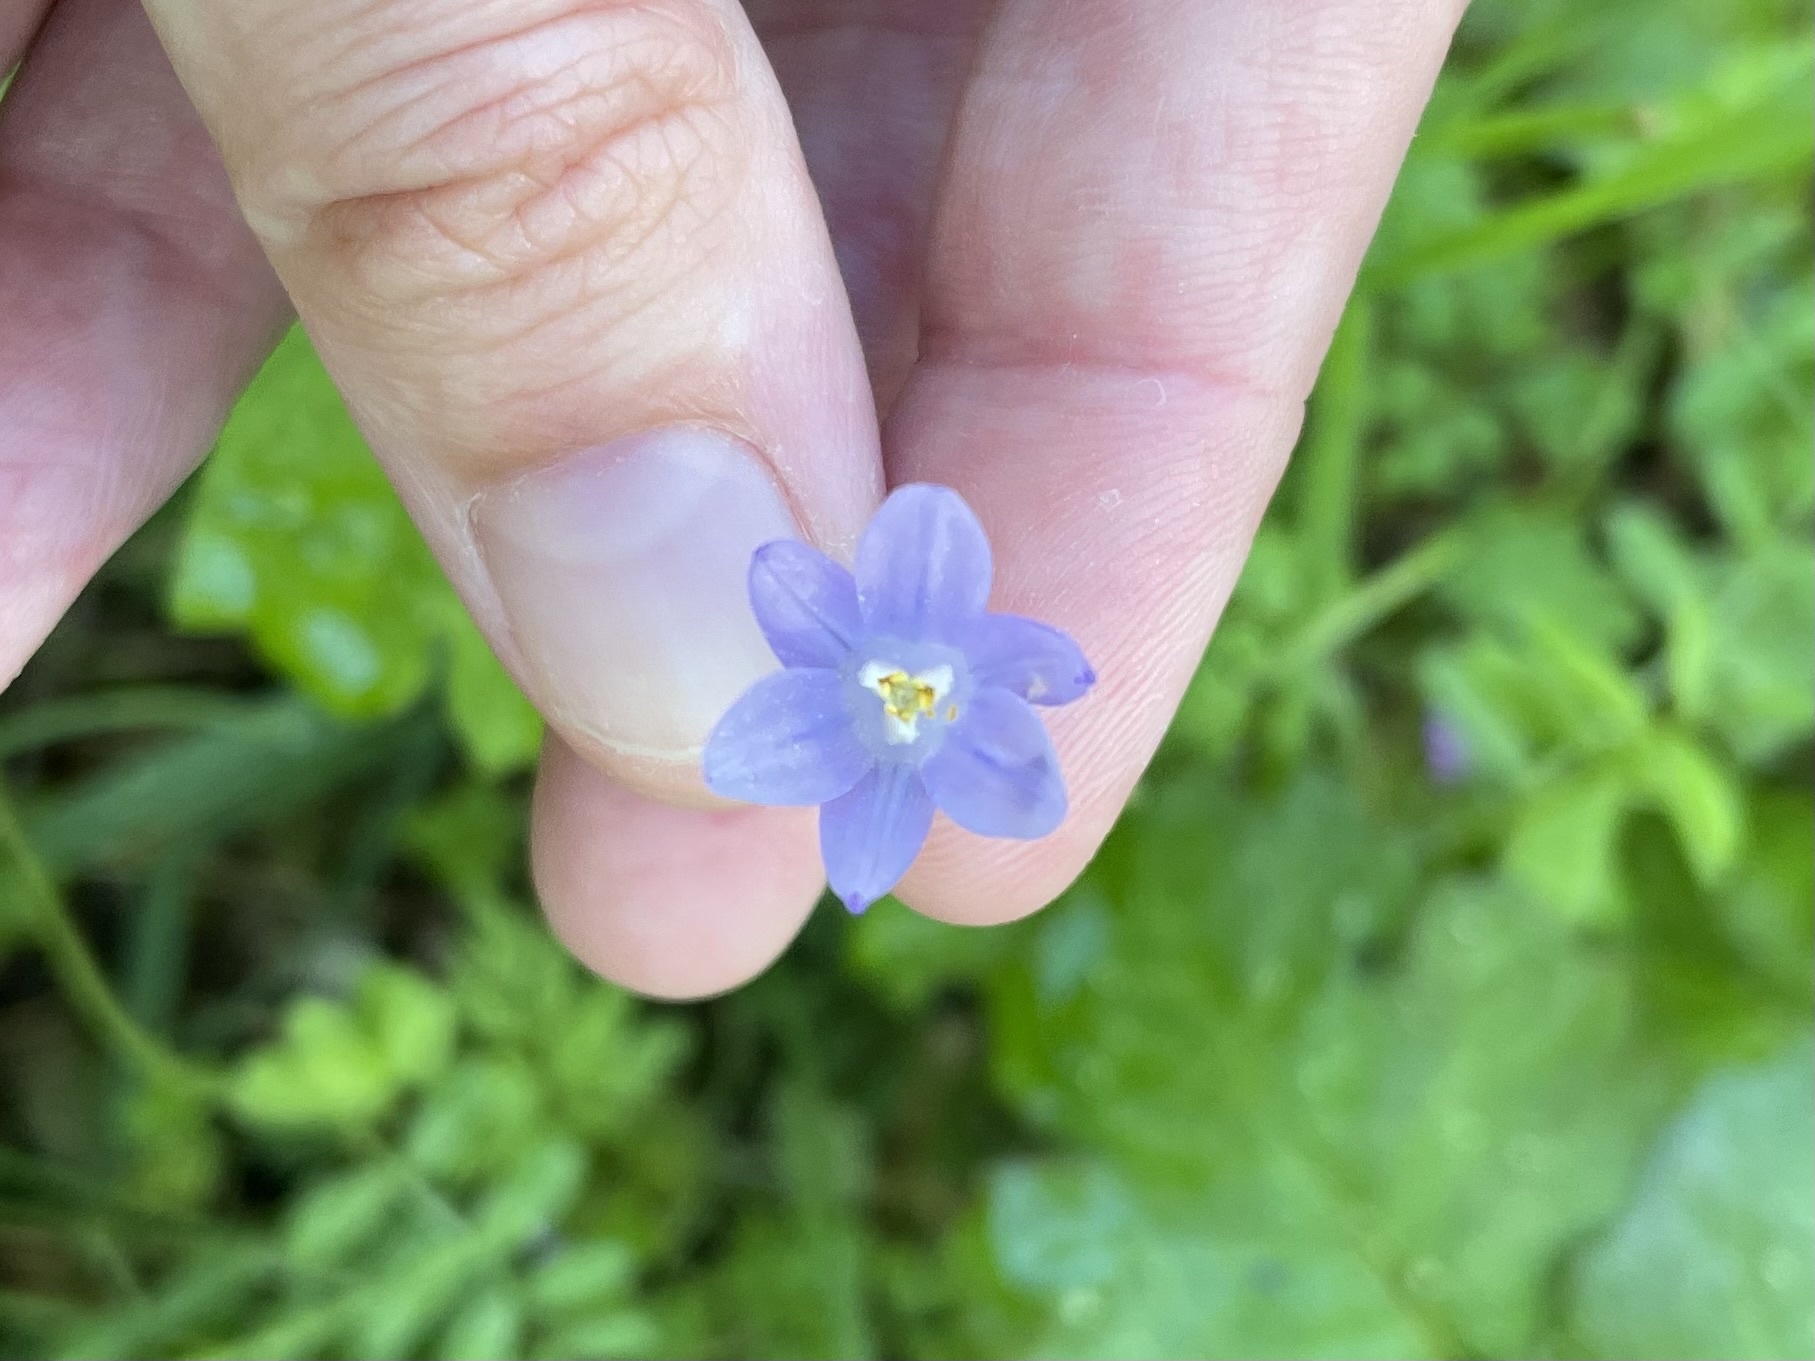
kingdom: Plantae
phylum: Tracheophyta
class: Liliopsida
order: Asparagales
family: Asparagaceae
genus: Dipterostemon
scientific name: Dipterostemon capitatus
